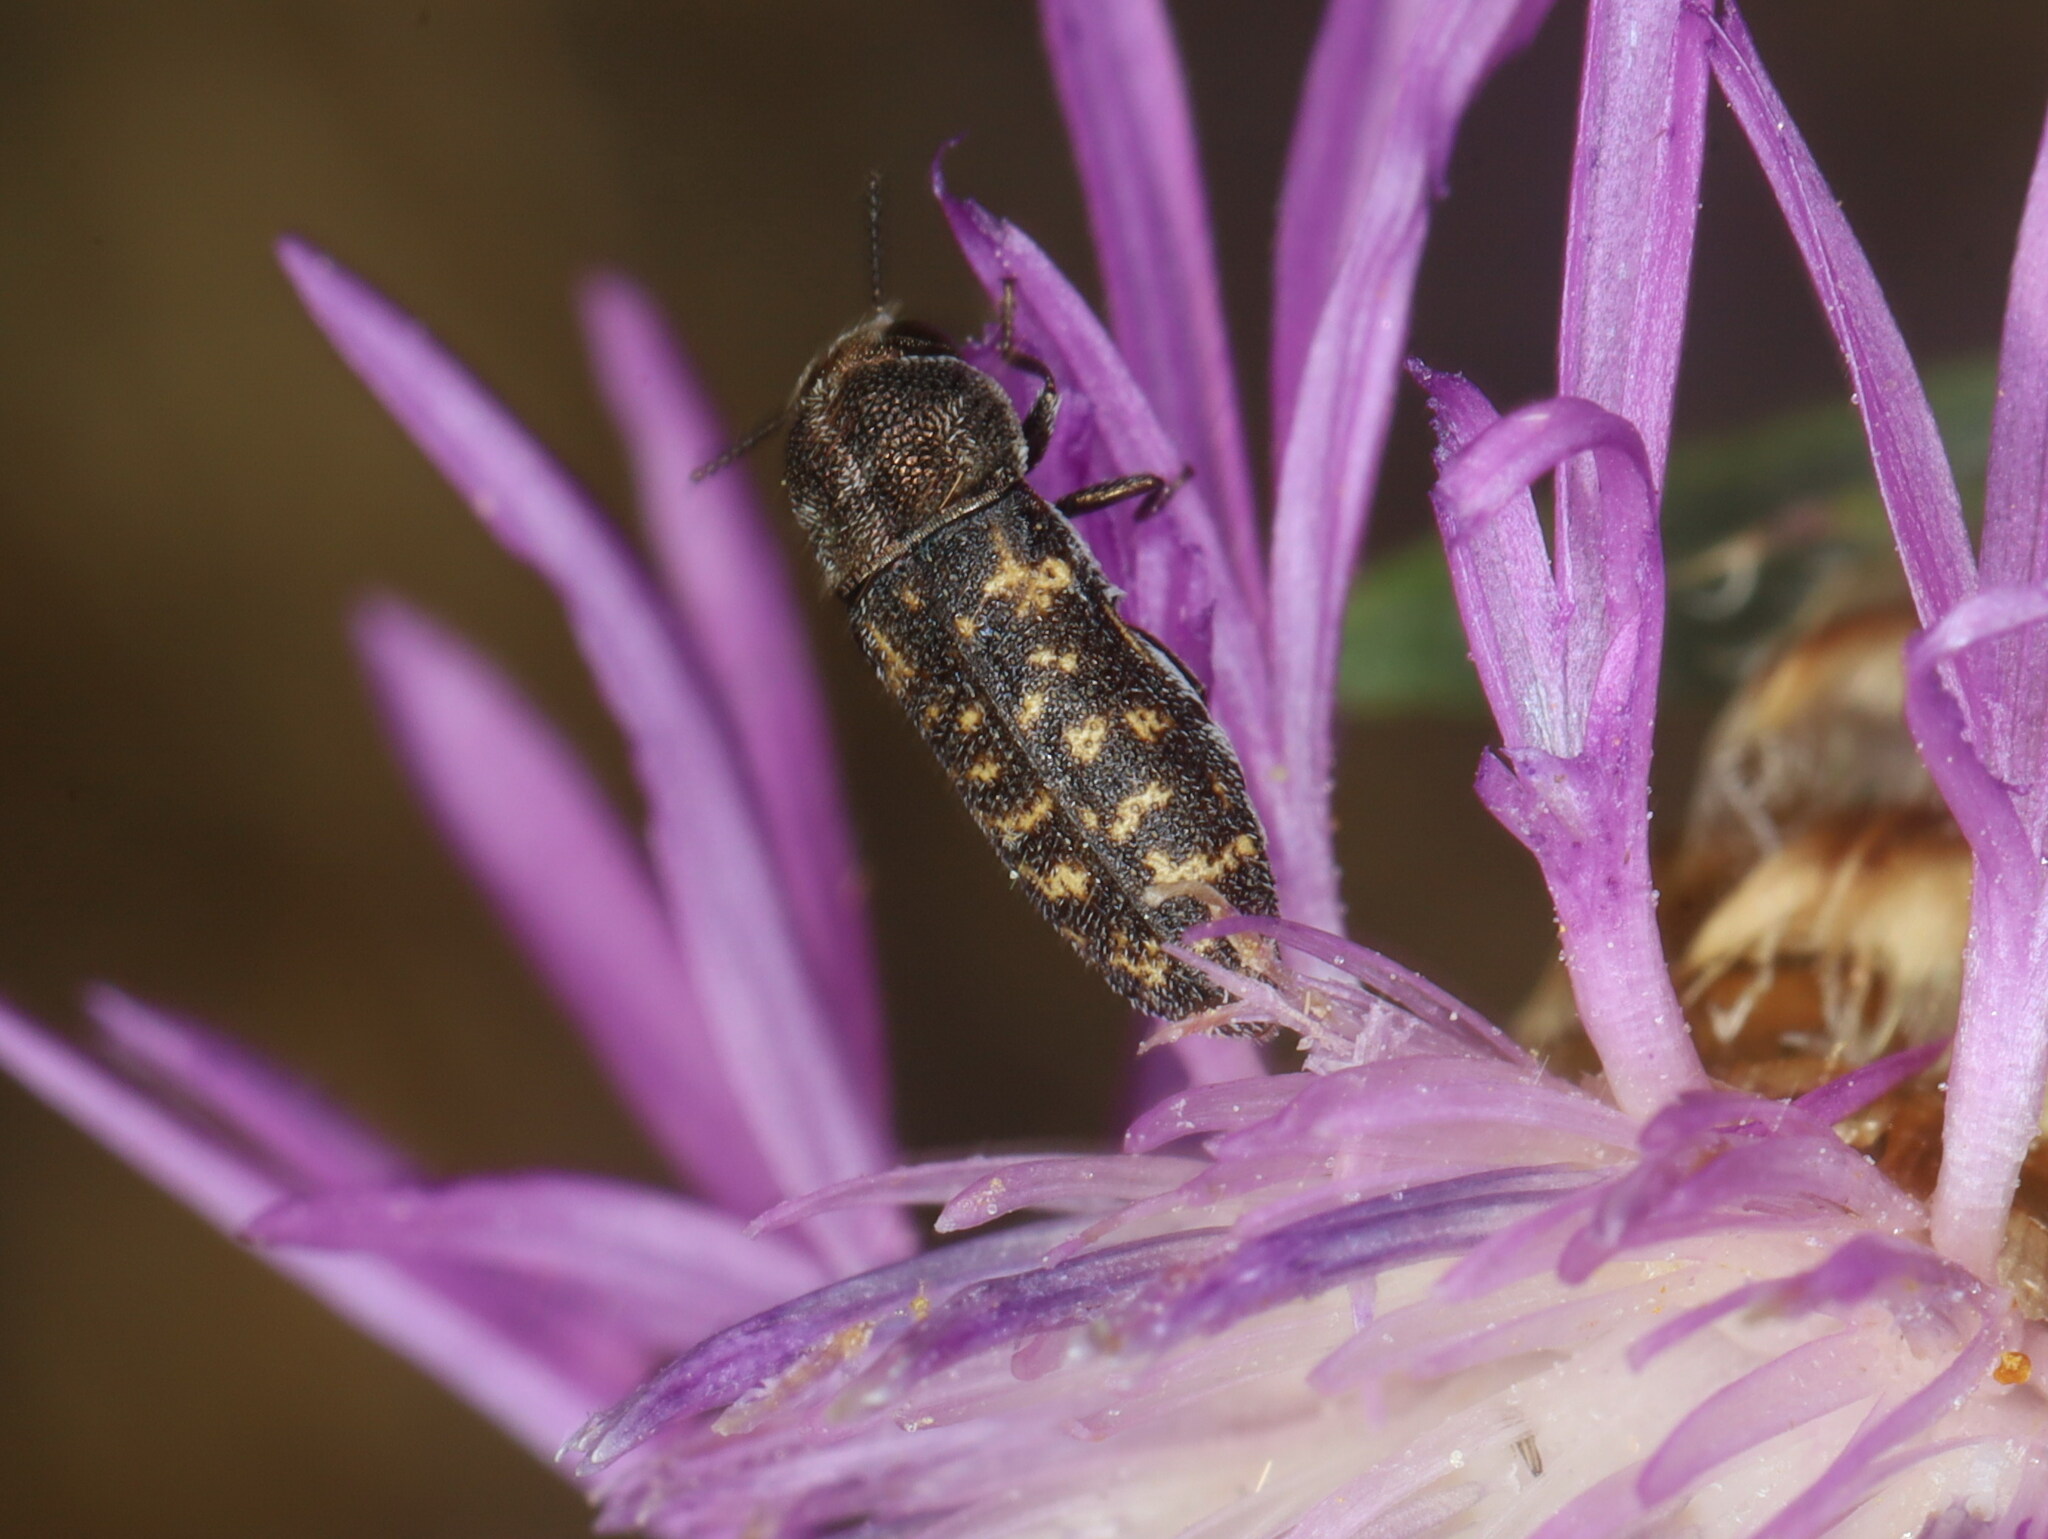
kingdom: Animalia
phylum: Arthropoda
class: Insecta
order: Coleoptera
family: Buprestidae
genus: Acmaeoderella
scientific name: Acmaeoderella adspersula
